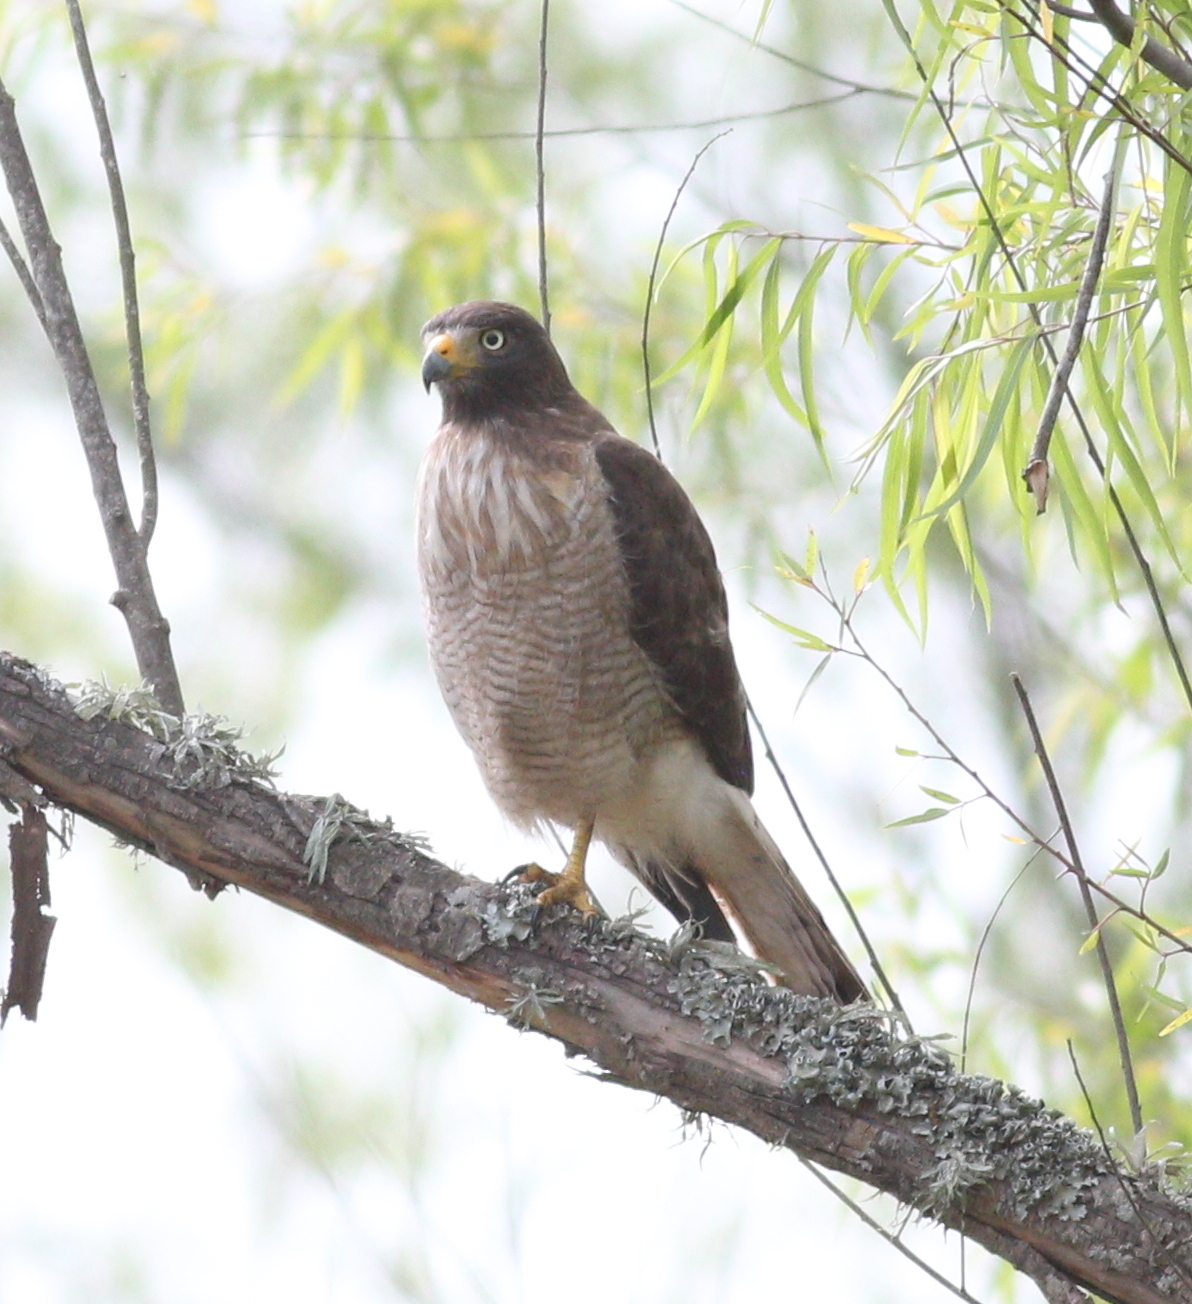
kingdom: Animalia
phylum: Chordata
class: Aves
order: Accipitriformes
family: Accipitridae
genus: Rupornis
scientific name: Rupornis magnirostris
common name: Roadside hawk
